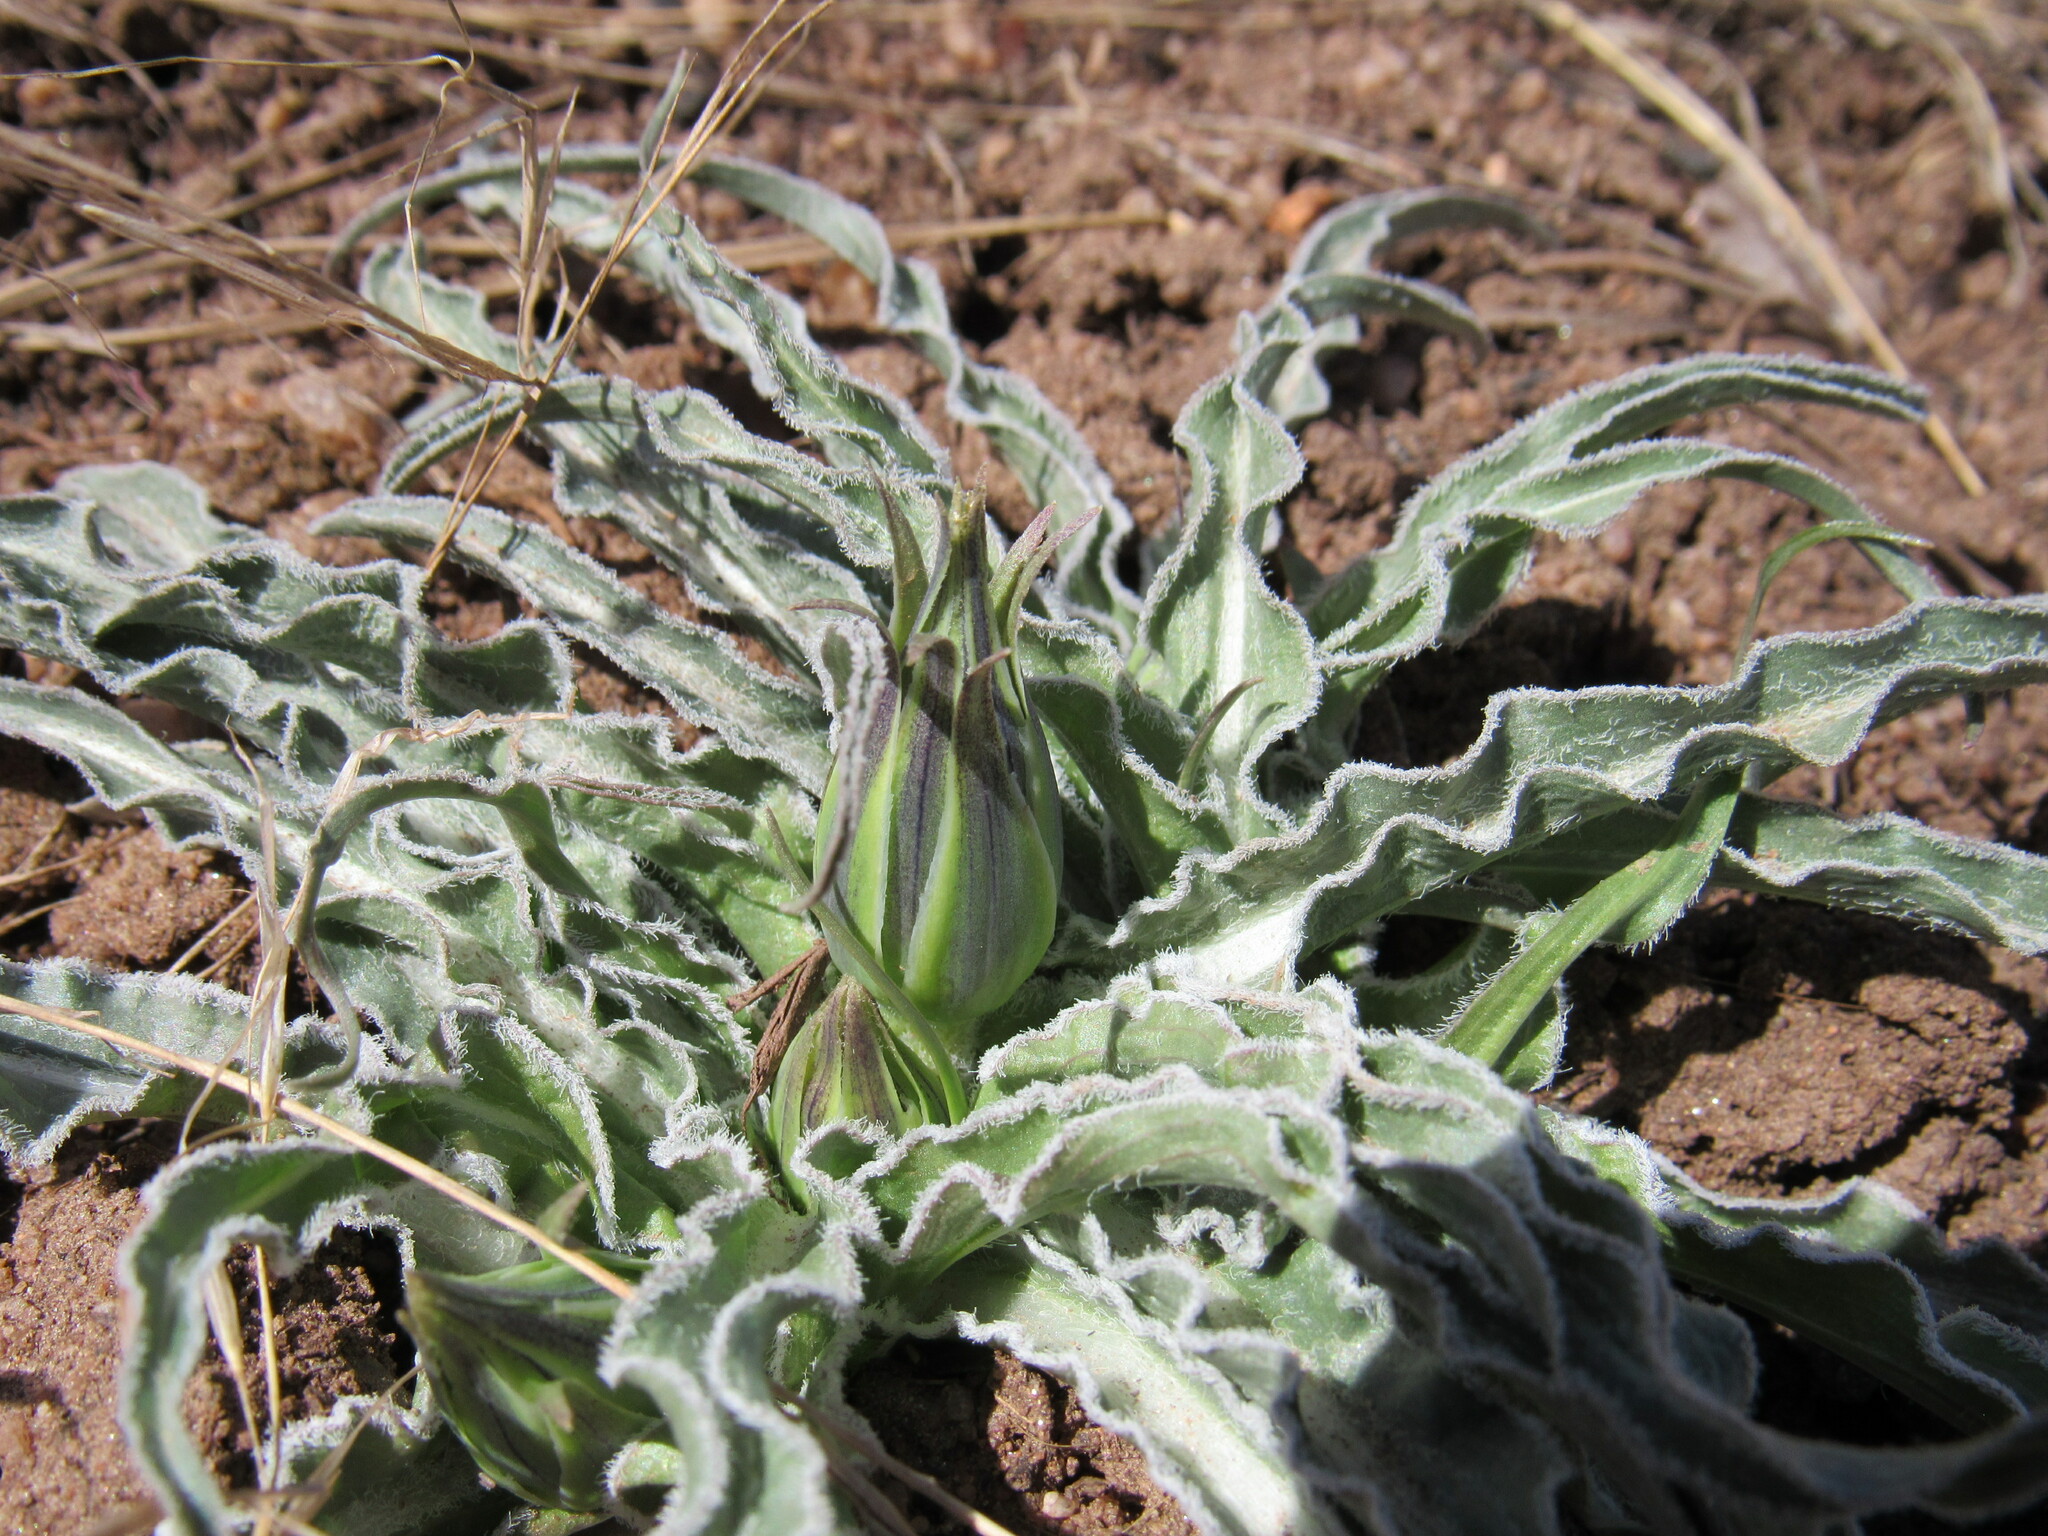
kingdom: Plantae
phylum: Tracheophyta
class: Magnoliopsida
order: Asterales
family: Asteraceae
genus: Microseris
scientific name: Microseris cuspidata
